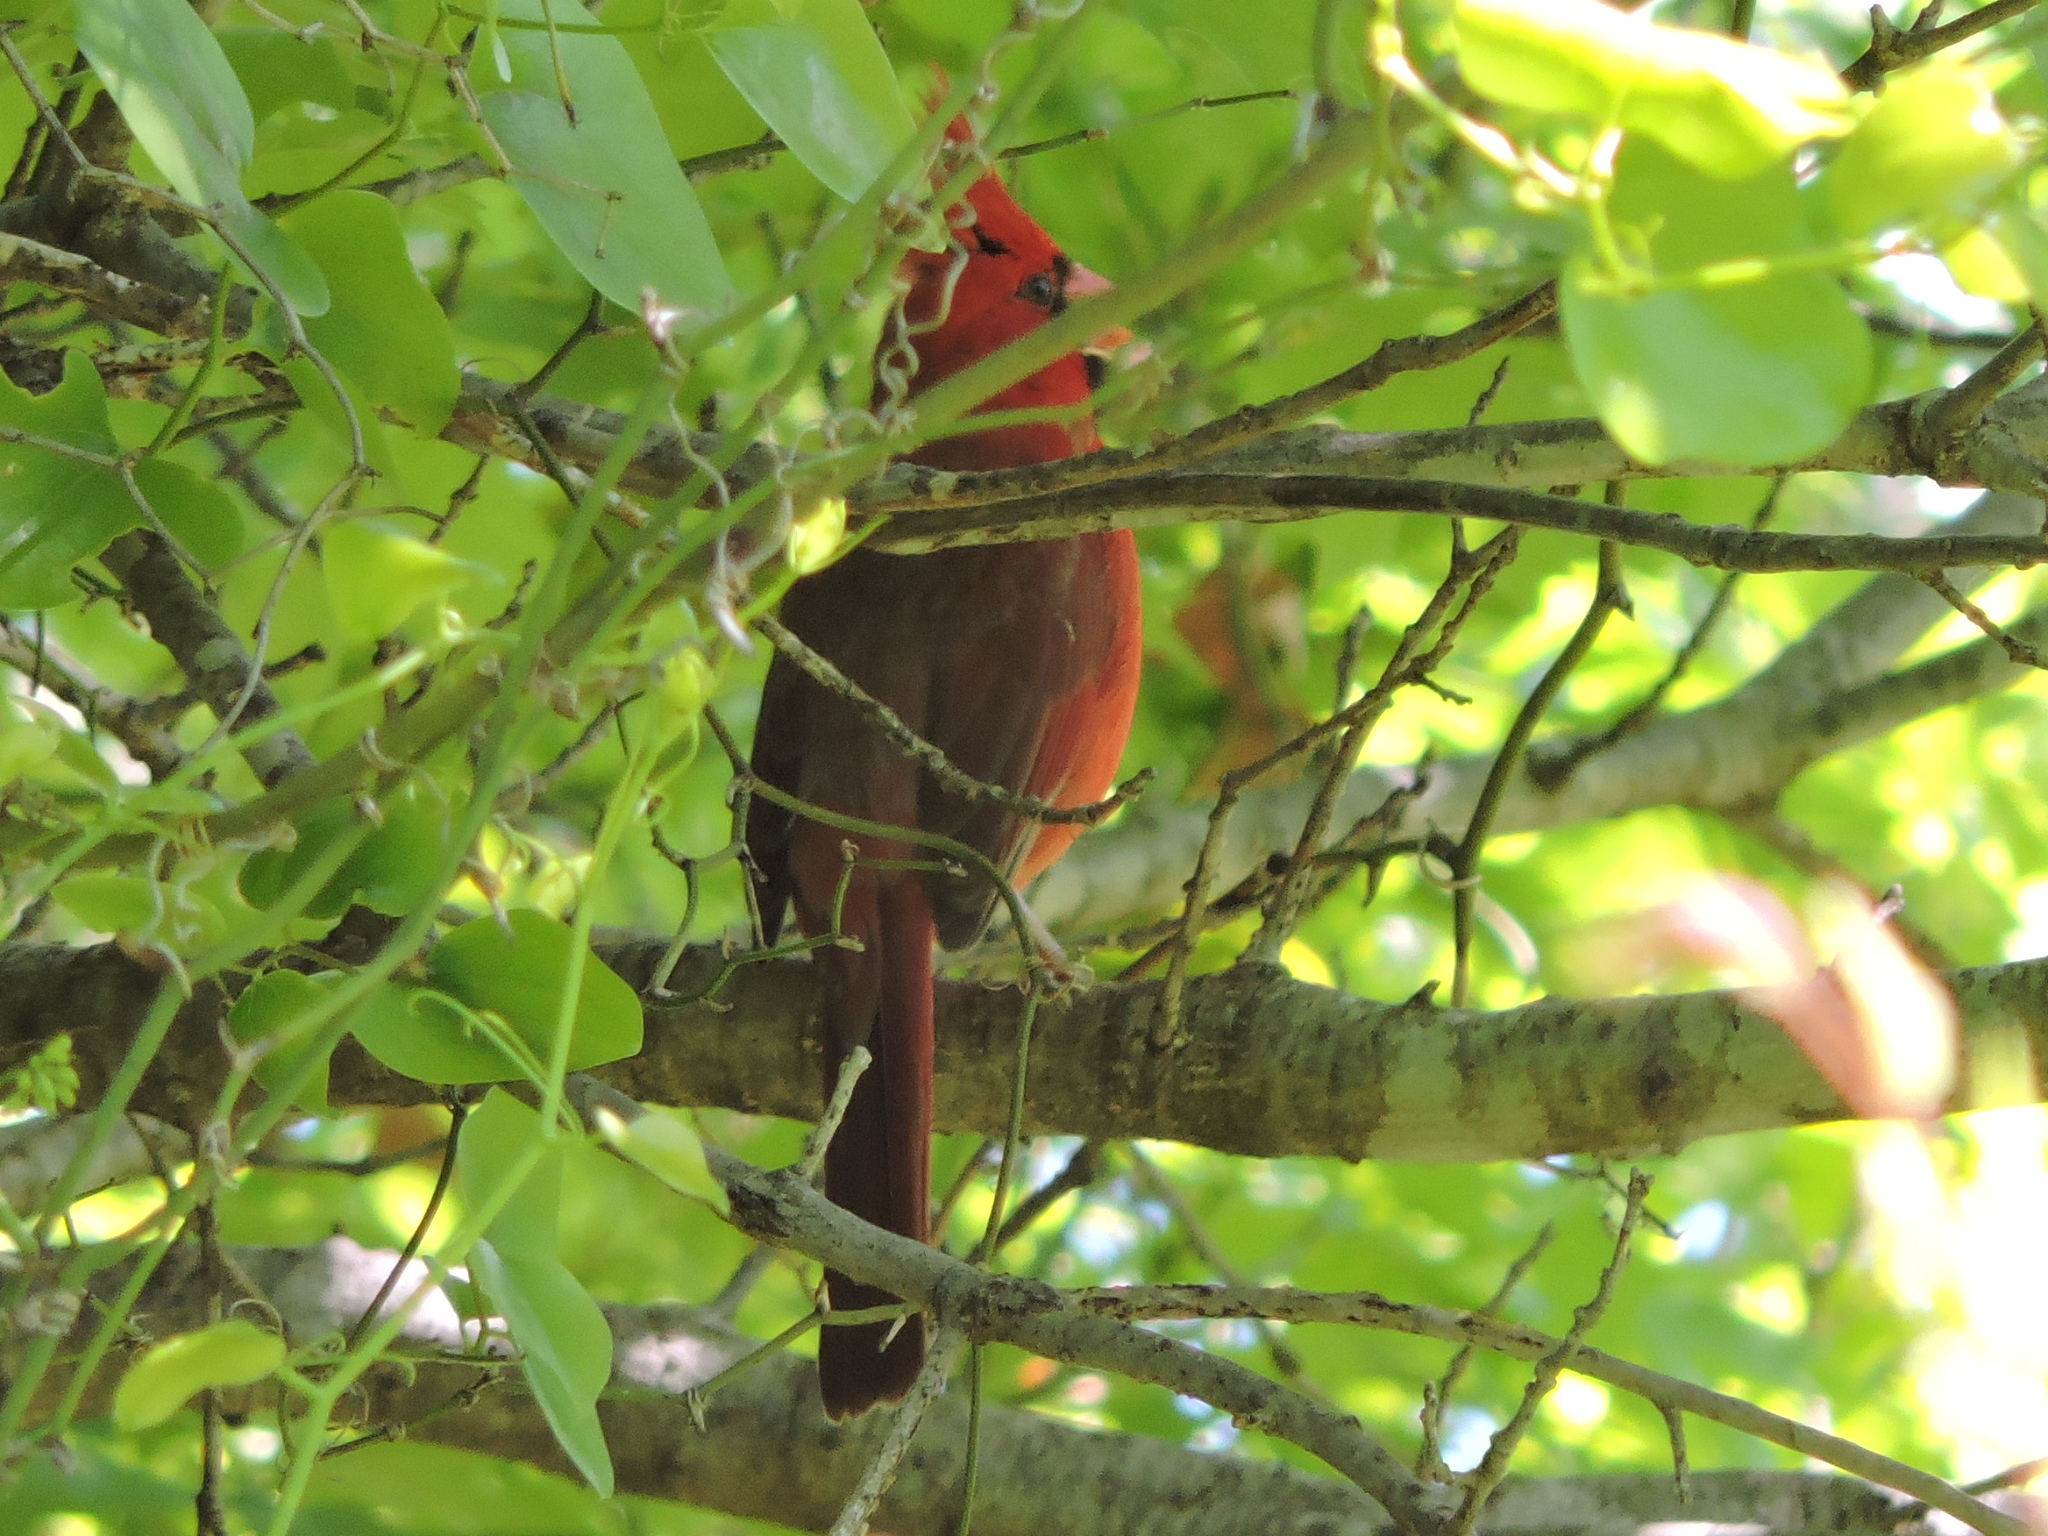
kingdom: Animalia
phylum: Chordata
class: Aves
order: Passeriformes
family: Cardinalidae
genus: Cardinalis
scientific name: Cardinalis cardinalis
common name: Northern cardinal
